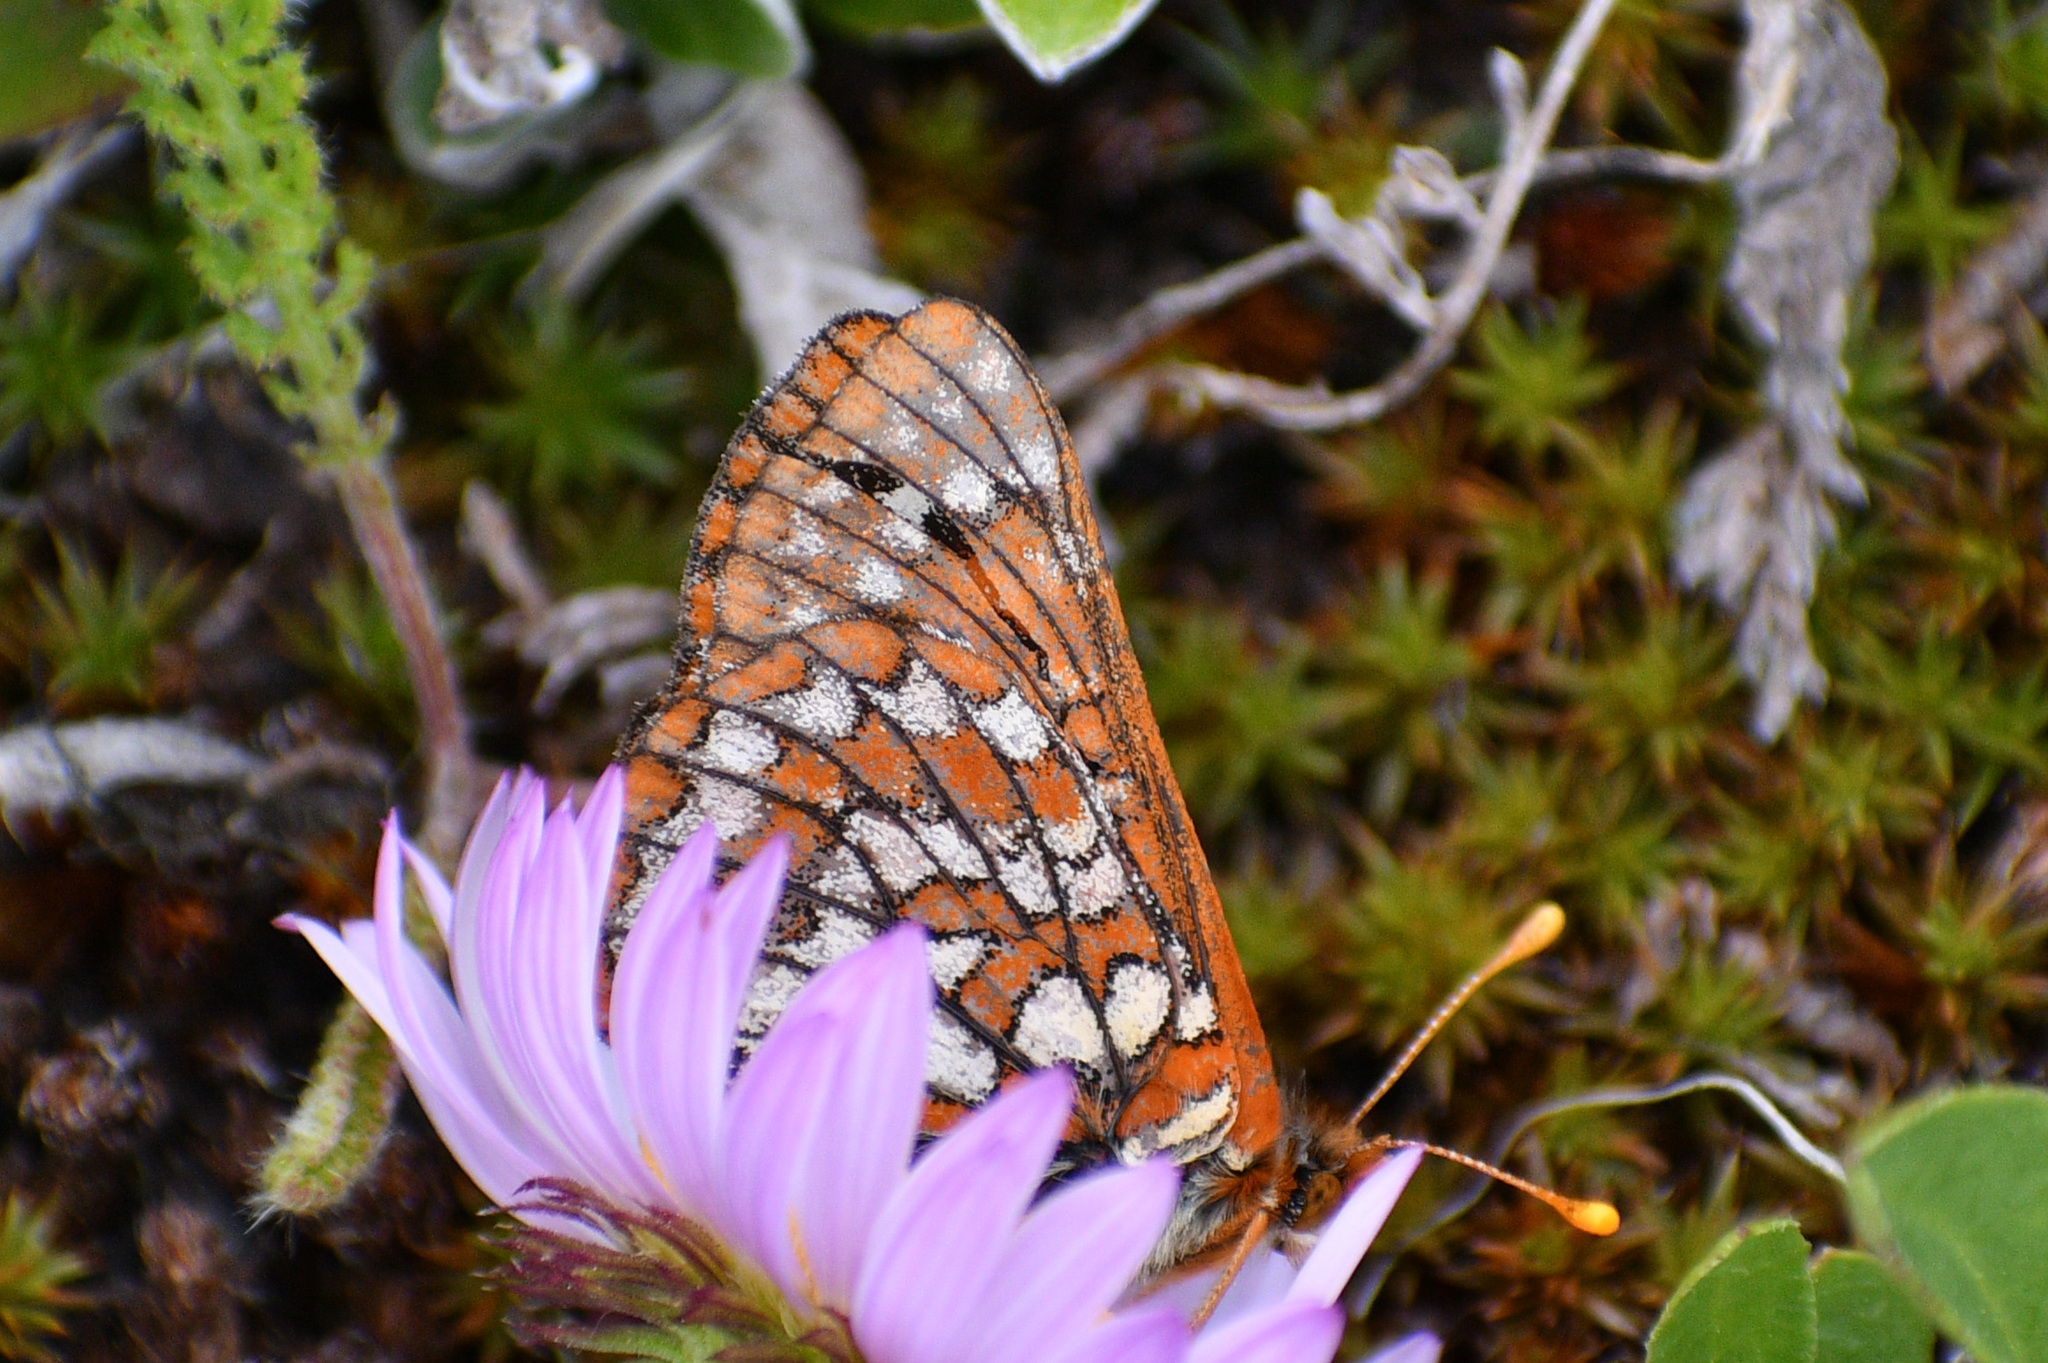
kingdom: Animalia
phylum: Arthropoda
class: Insecta
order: Lepidoptera
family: Nymphalidae
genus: Occidryas
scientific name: Occidryas anicia
